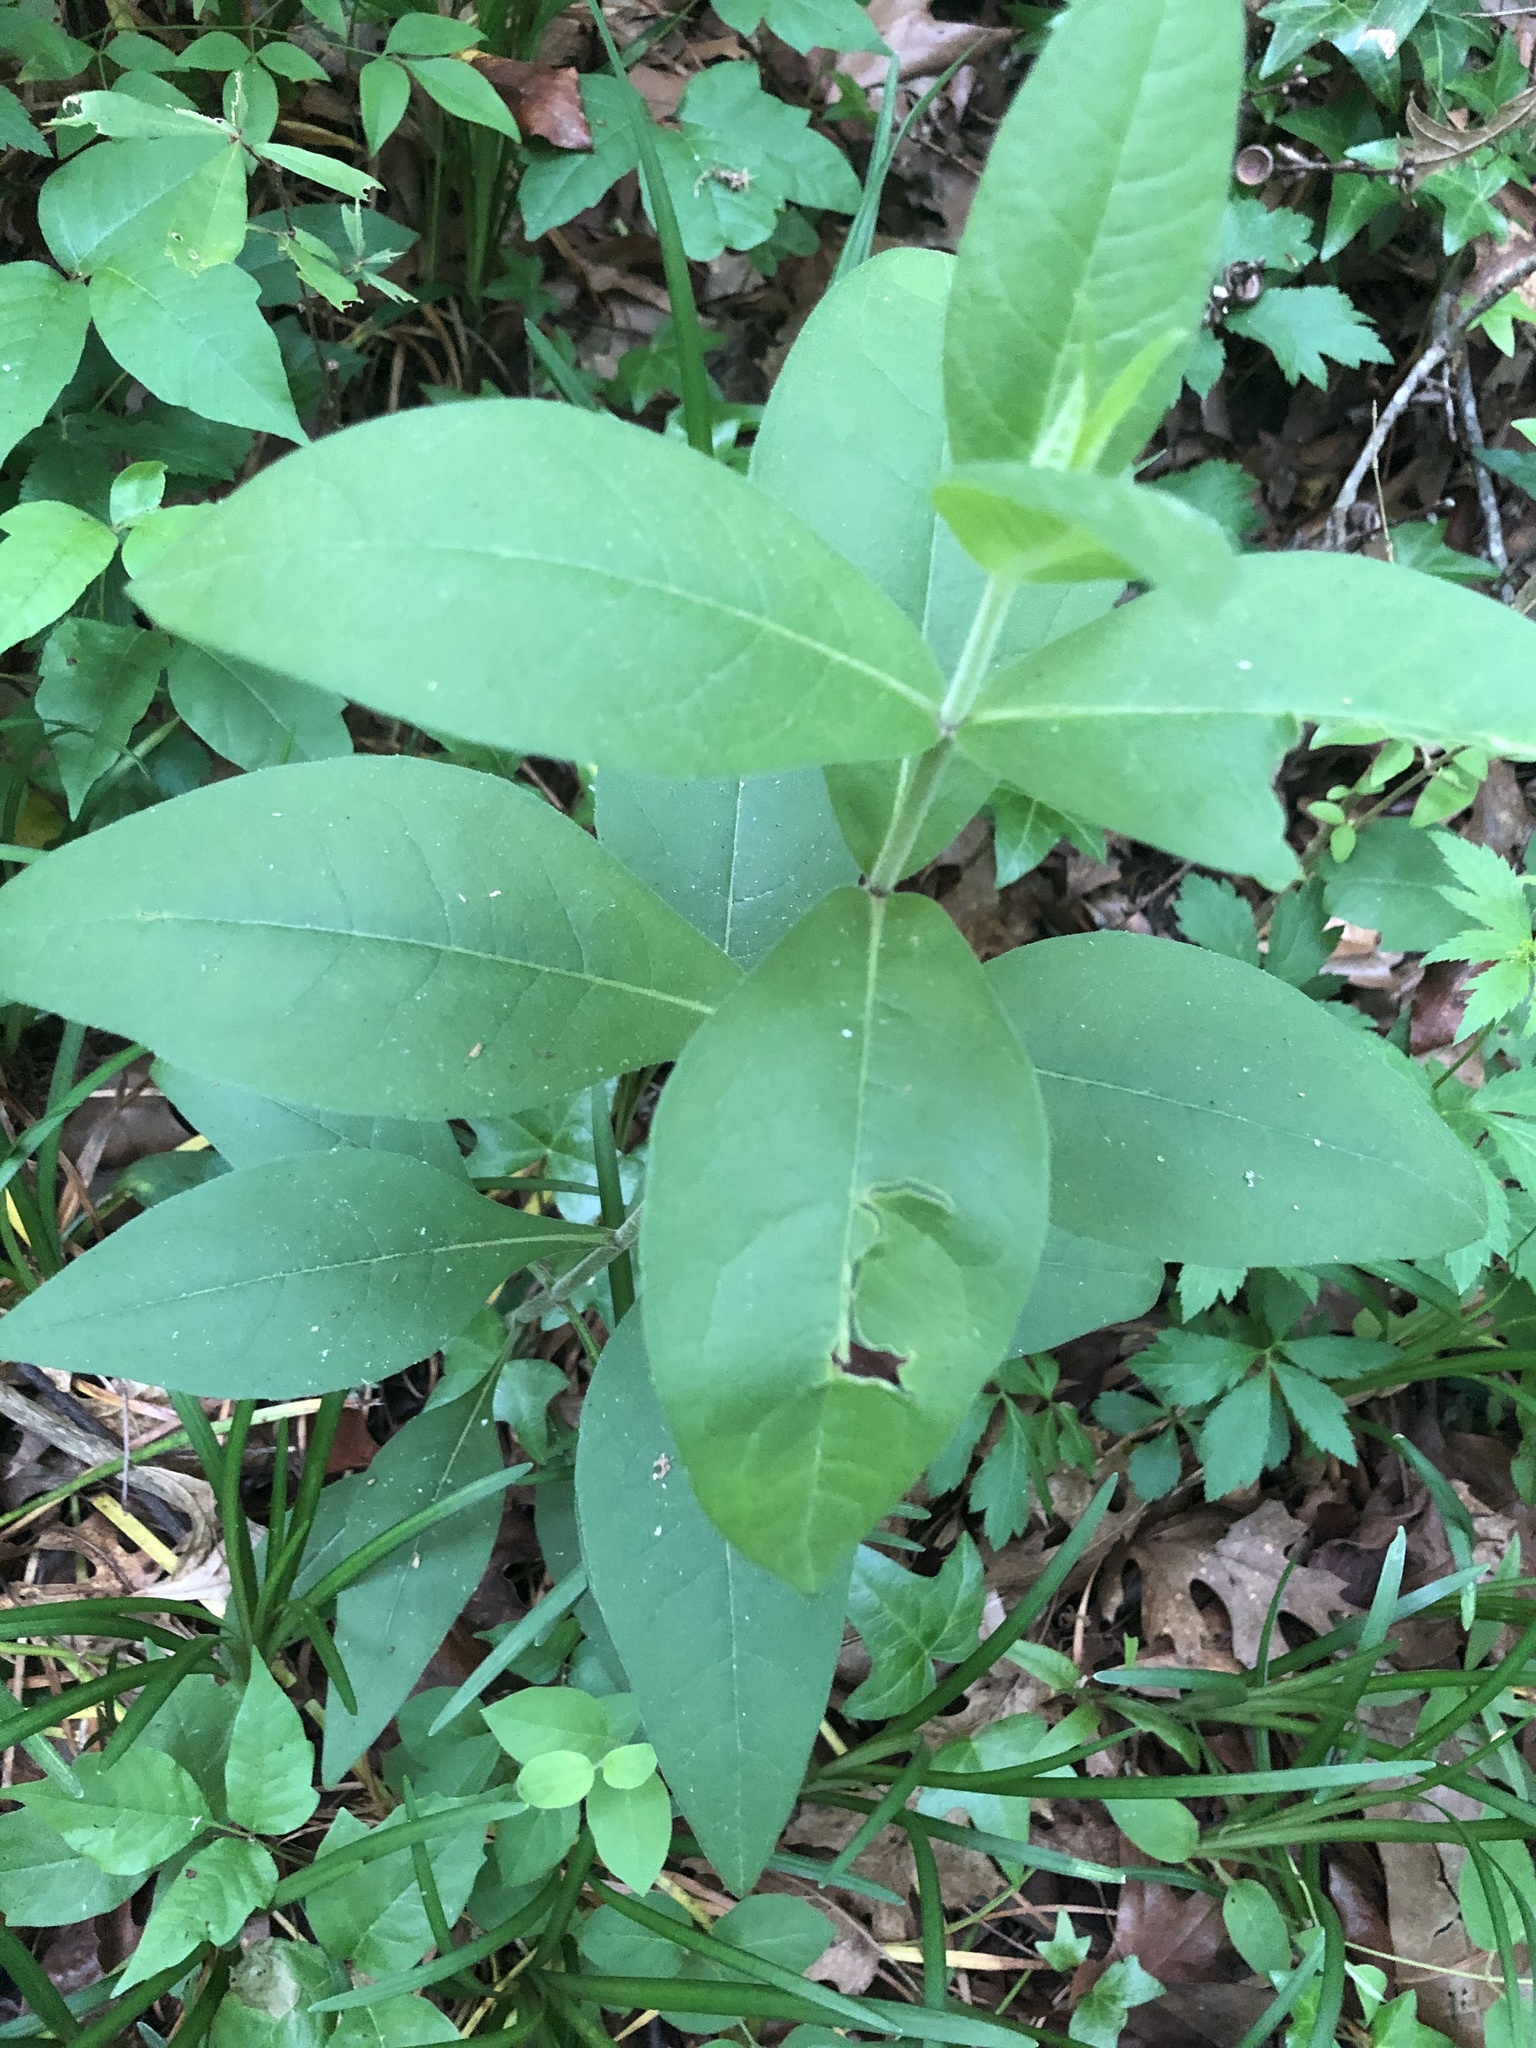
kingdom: Plantae
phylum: Tracheophyta
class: Magnoliopsida
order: Asterales
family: Asteraceae
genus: Silphium
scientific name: Silphium integrifolium
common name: Whole-leaf rosinweed
